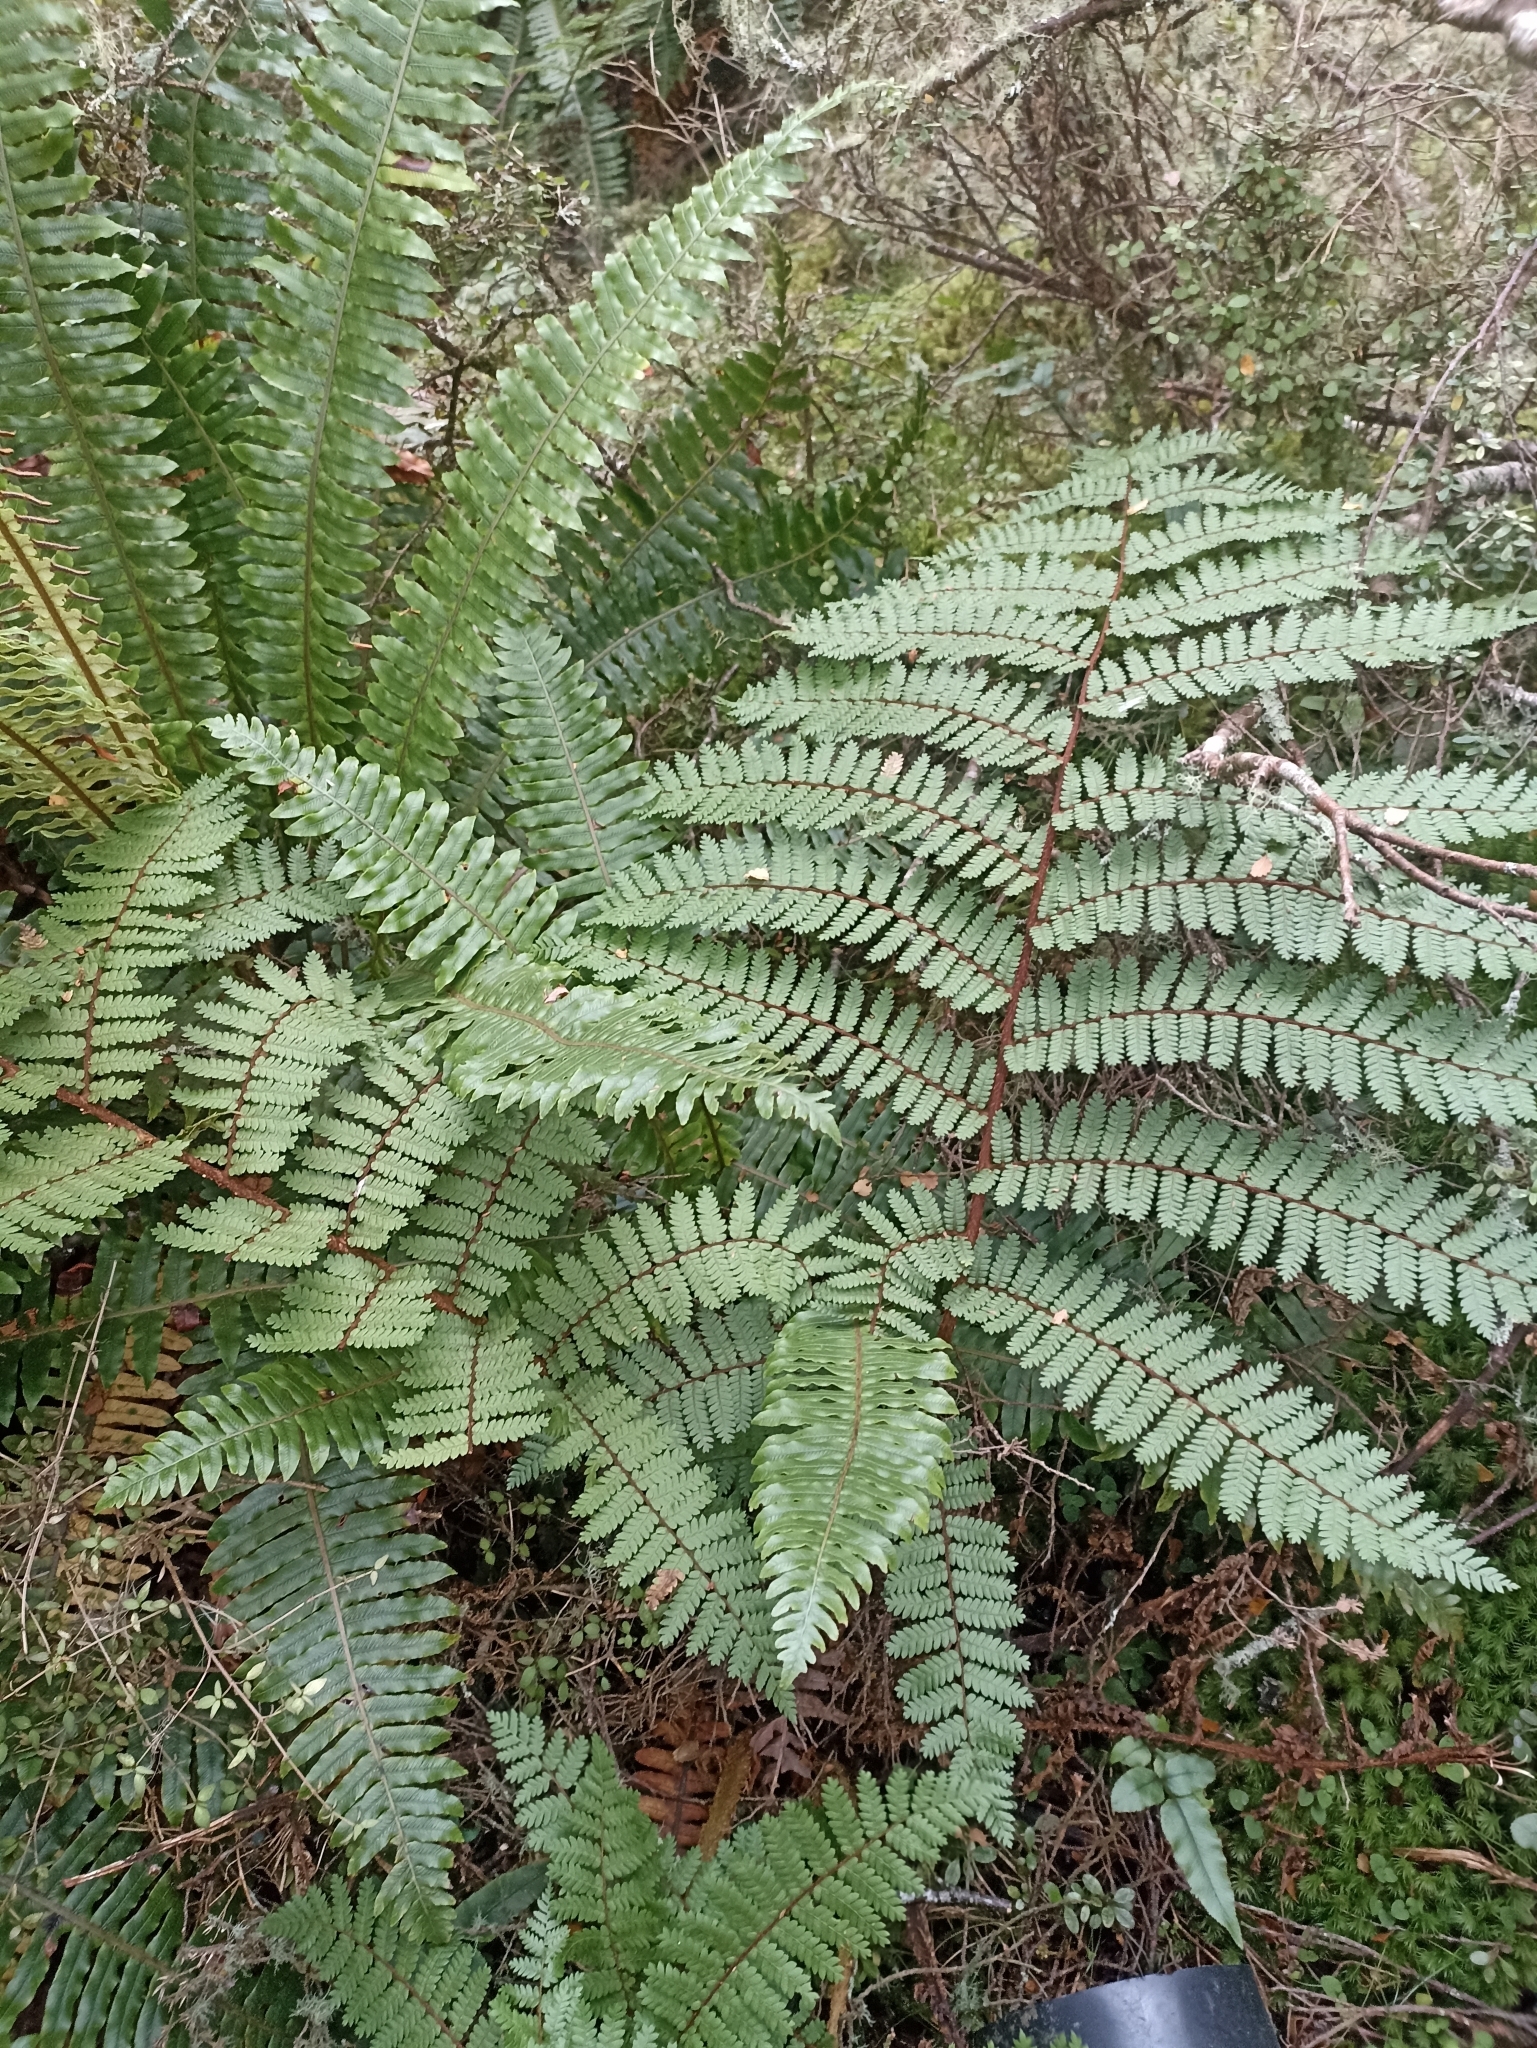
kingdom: Plantae
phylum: Tracheophyta
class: Polypodiopsida
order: Cyatheales
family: Cyatheaceae
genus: Alsophila
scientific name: Alsophila colensoi
